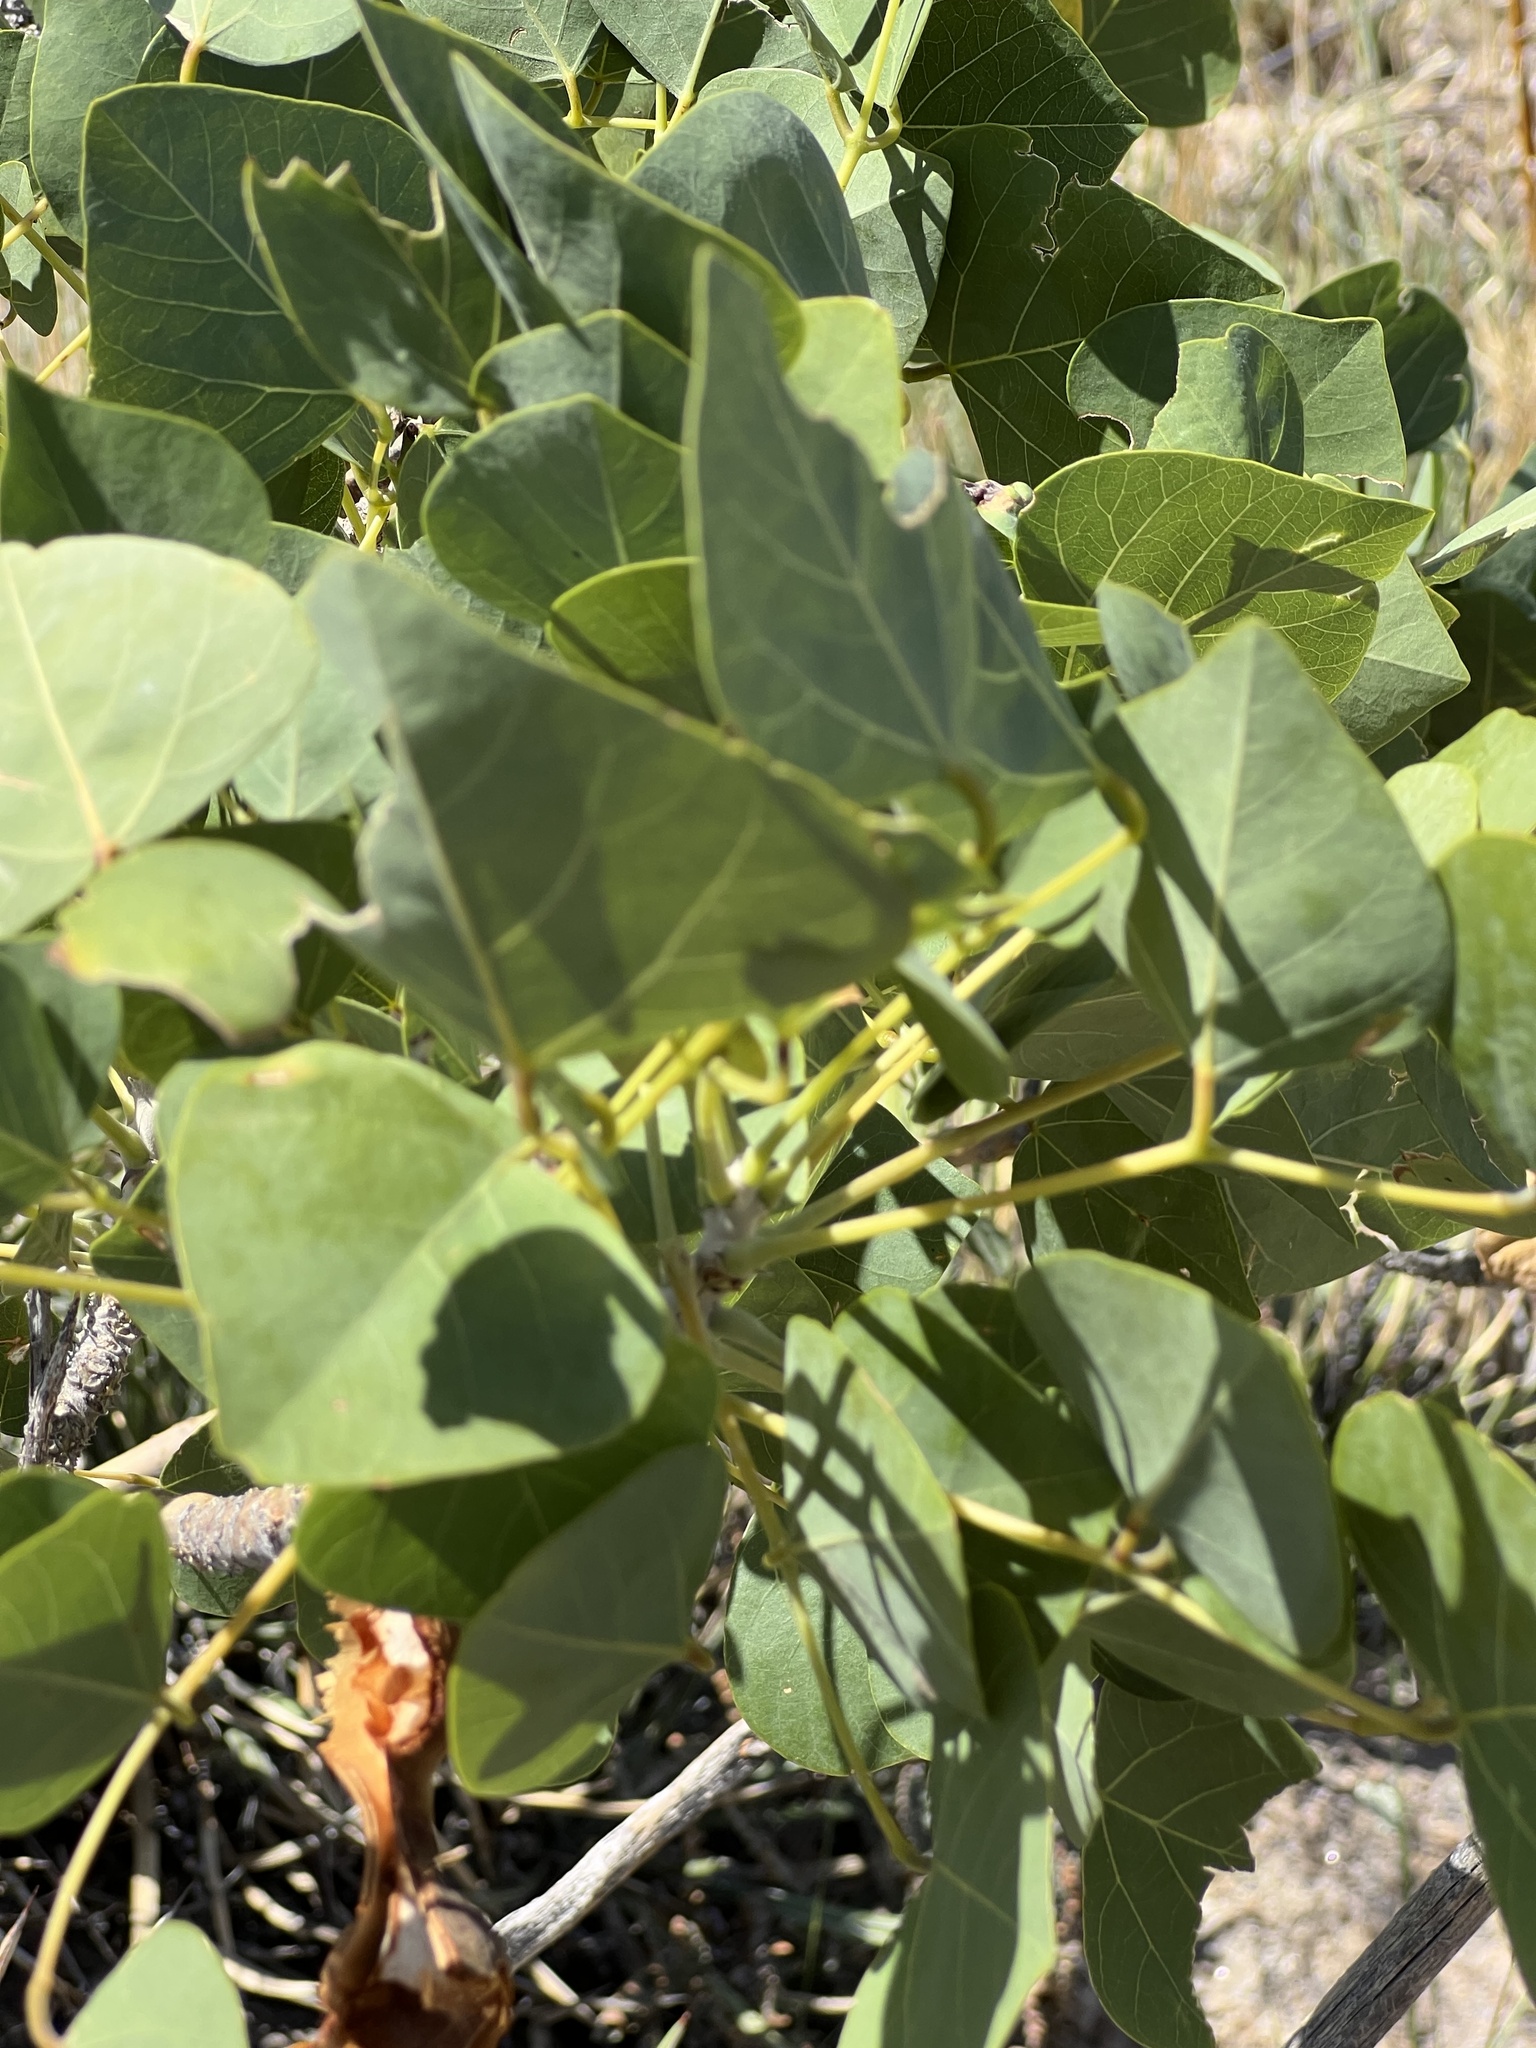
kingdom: Plantae
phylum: Tracheophyta
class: Magnoliopsida
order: Fabales
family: Fabaceae
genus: Erythrina
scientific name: Erythrina flabelliformis
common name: Chilicote
